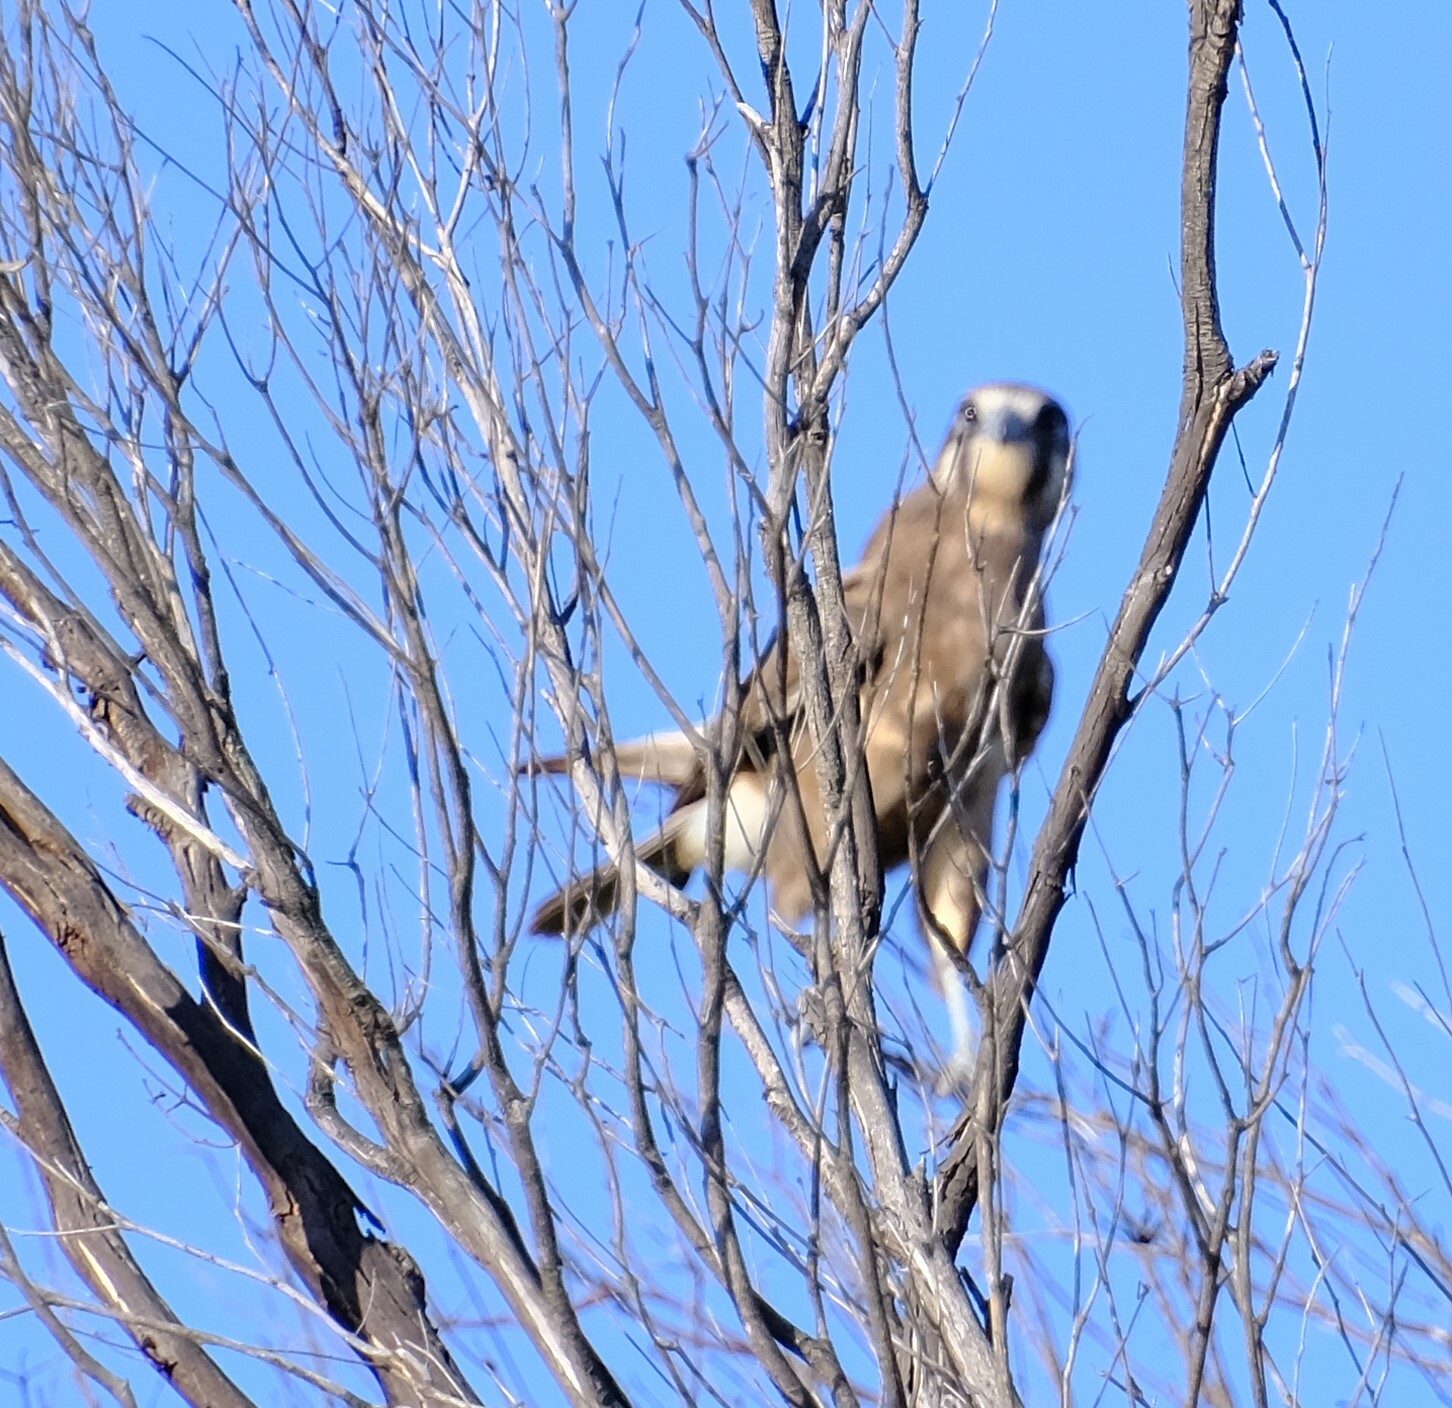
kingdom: Animalia
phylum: Chordata
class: Aves
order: Falconiformes
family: Falconidae
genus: Falco
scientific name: Falco berigora
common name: Brown falcon
